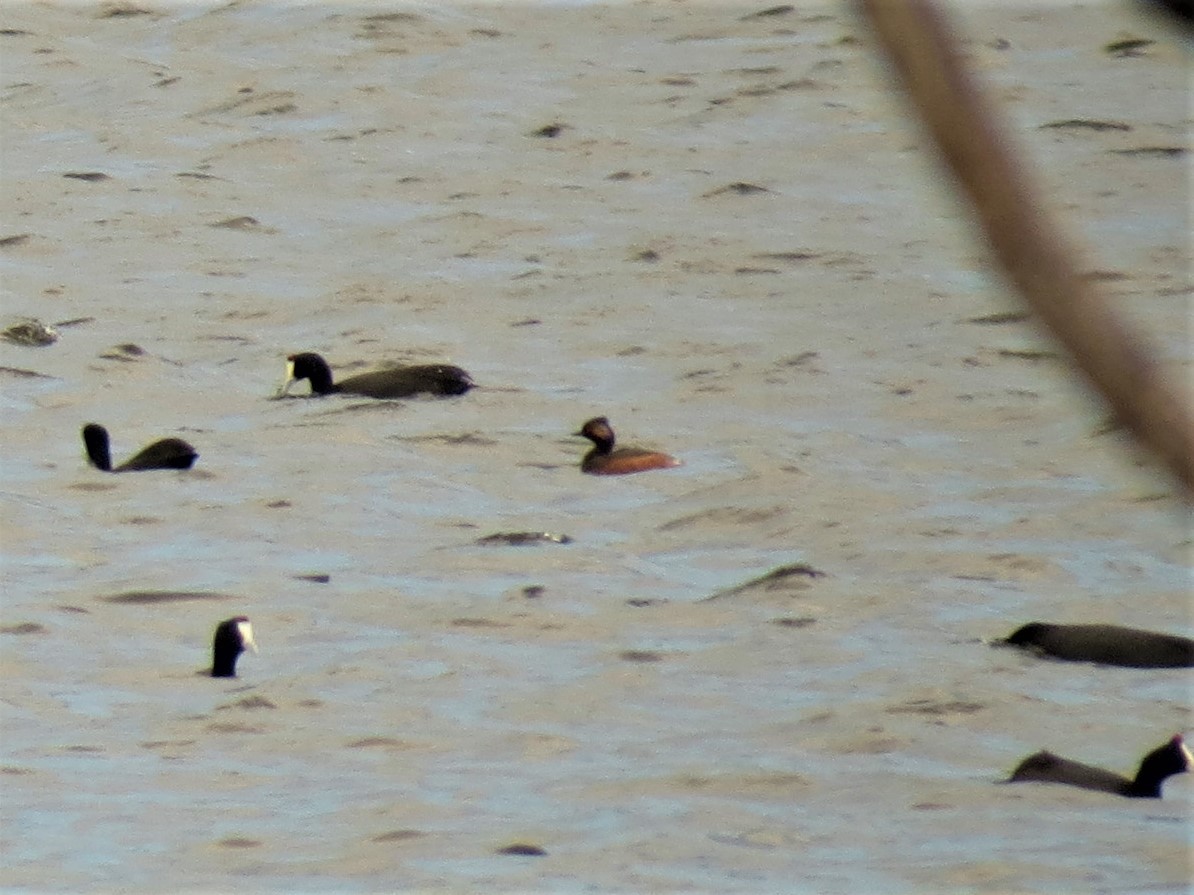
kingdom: Animalia
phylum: Chordata
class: Aves
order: Podicipediformes
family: Podicipedidae
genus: Podiceps
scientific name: Podiceps nigricollis
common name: Black-necked grebe
